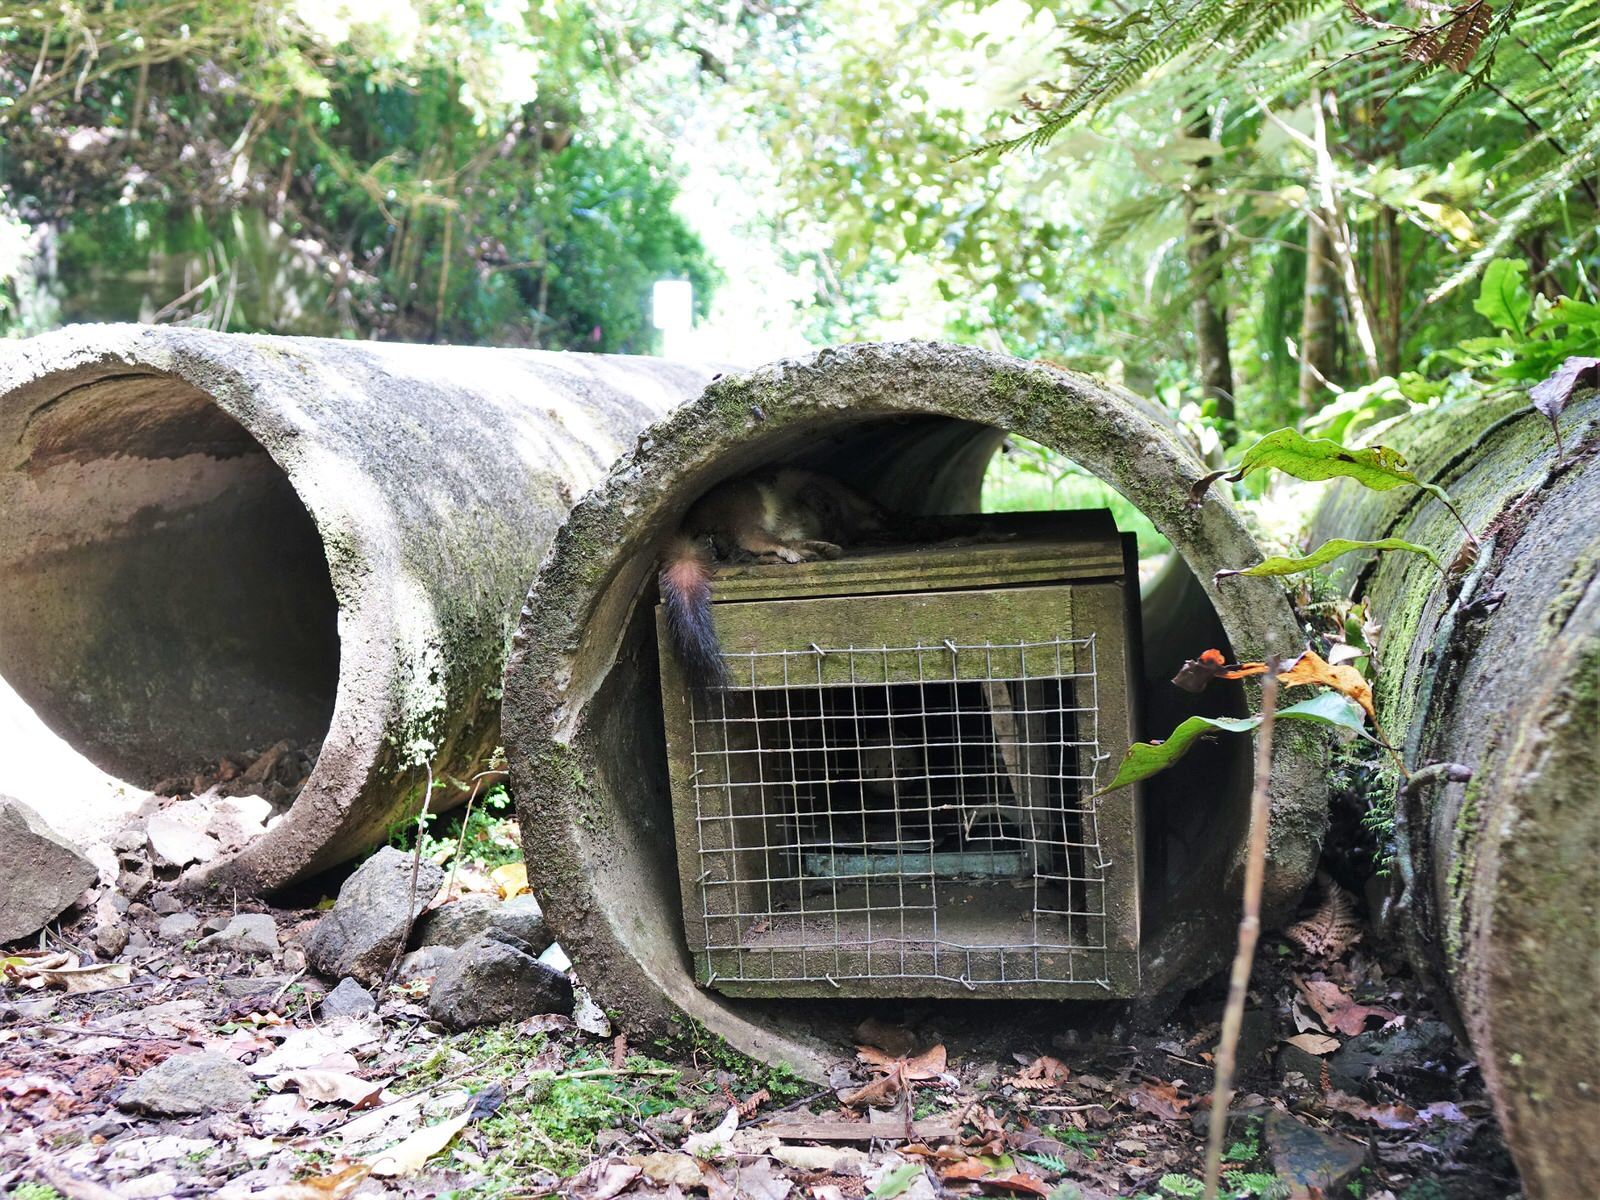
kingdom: Animalia
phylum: Chordata
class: Mammalia
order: Carnivora
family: Mustelidae
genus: Mustela
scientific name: Mustela erminea
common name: Stoat
